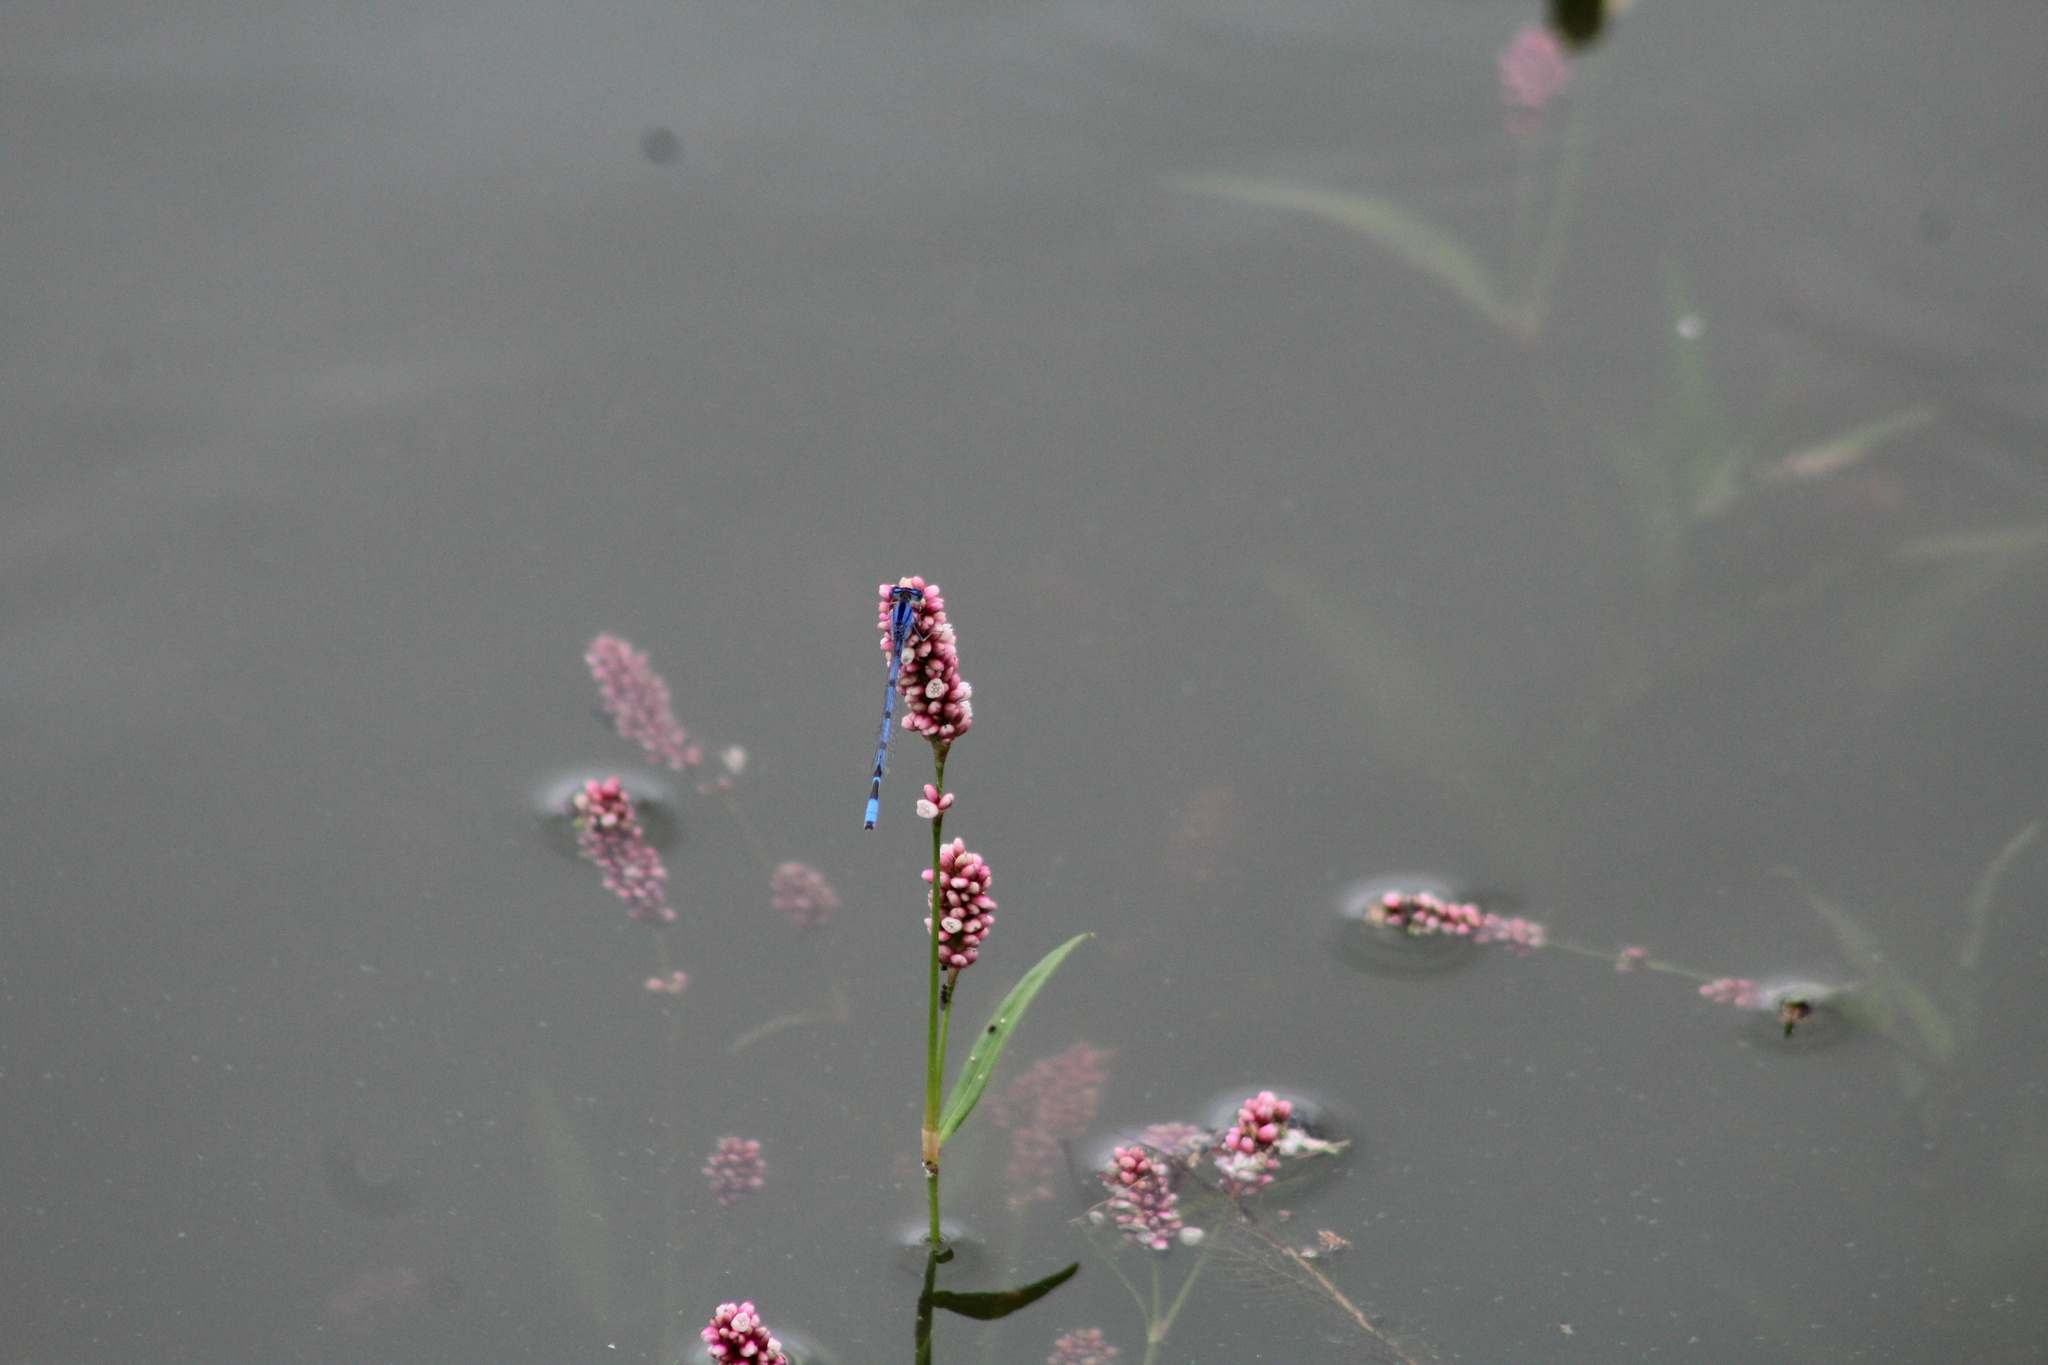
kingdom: Plantae
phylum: Tracheophyta
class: Magnoliopsida
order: Caryophyllales
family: Polygonaceae
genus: Persicaria
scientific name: Persicaria maculosa
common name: Redshank
